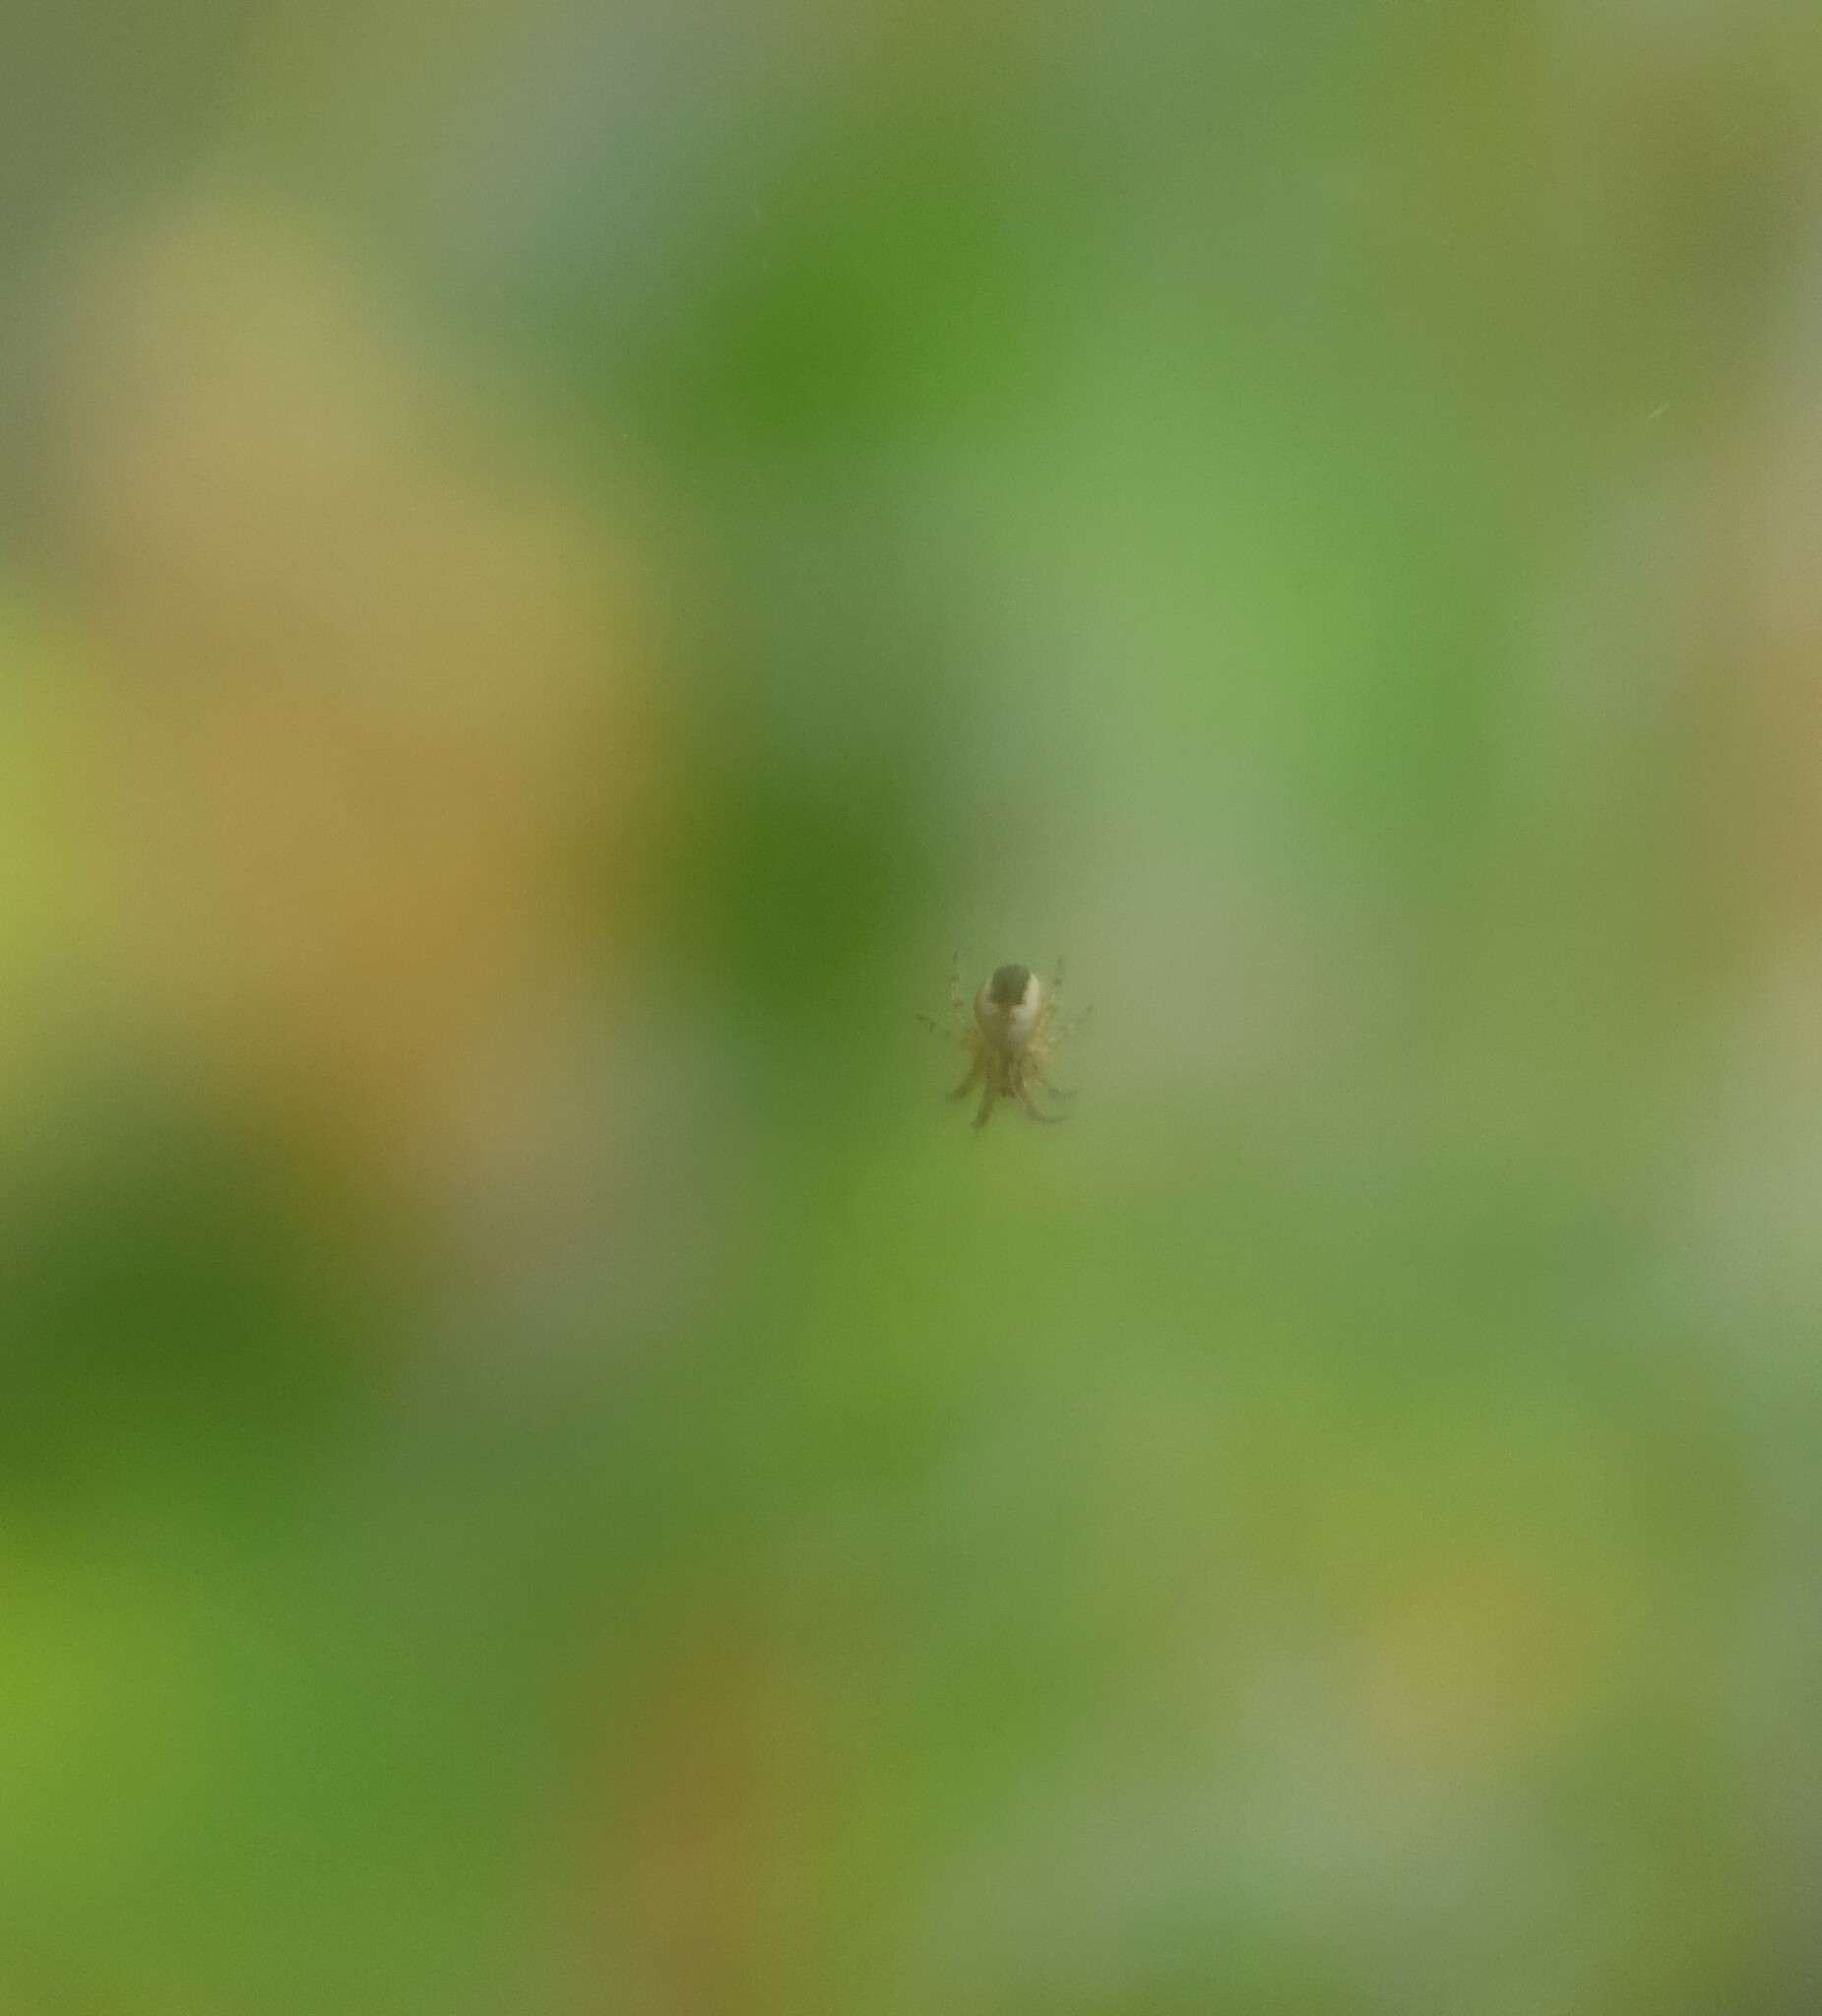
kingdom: Animalia
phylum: Arthropoda
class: Arachnida
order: Araneae
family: Araneidae
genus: Mangora
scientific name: Mangora acalypha
